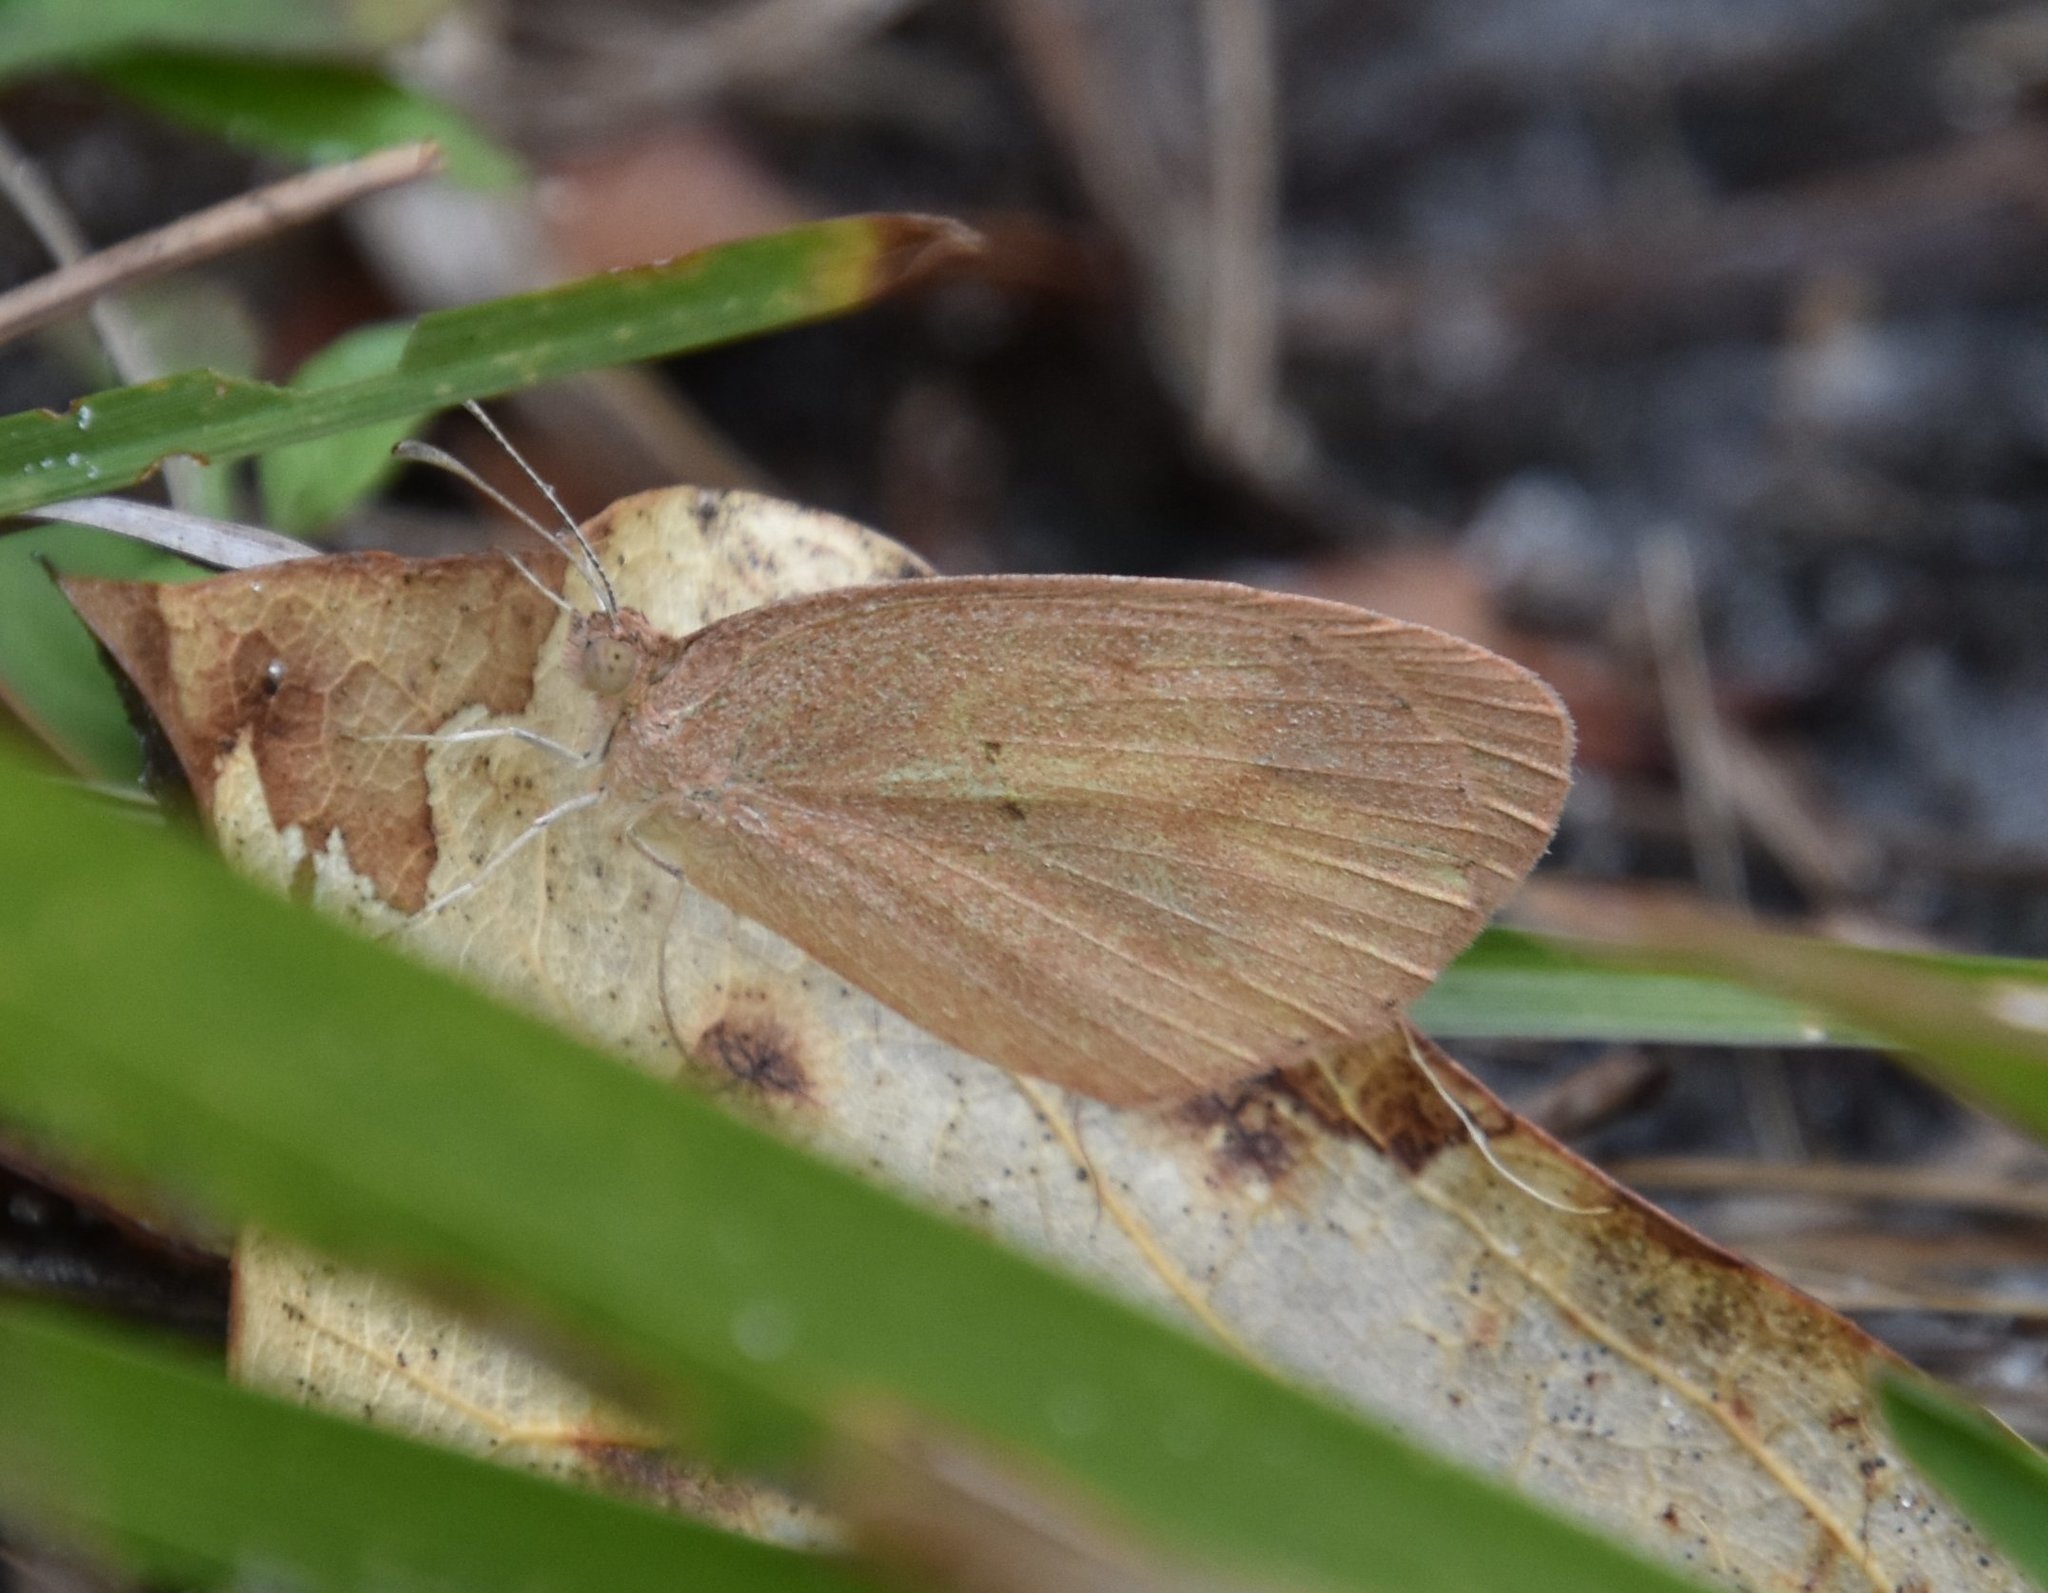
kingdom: Animalia
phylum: Arthropoda
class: Insecta
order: Lepidoptera
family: Pieridae
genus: Eurema
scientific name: Eurema daira
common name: Barred sulphur
